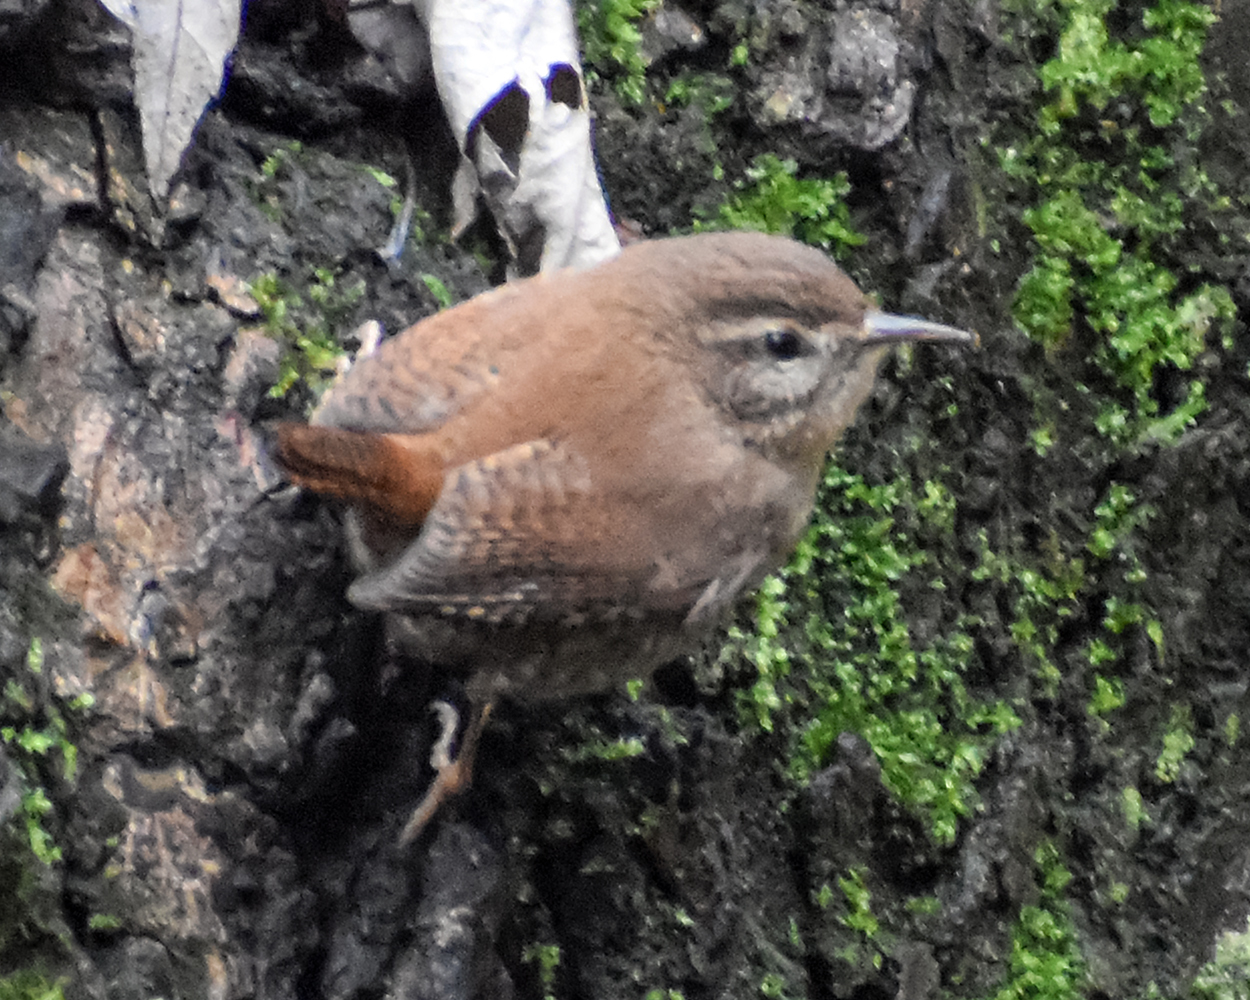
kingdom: Animalia
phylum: Chordata
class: Aves
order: Passeriformes
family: Troglodytidae
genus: Troglodytes
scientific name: Troglodytes troglodytes
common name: Eurasian wren
